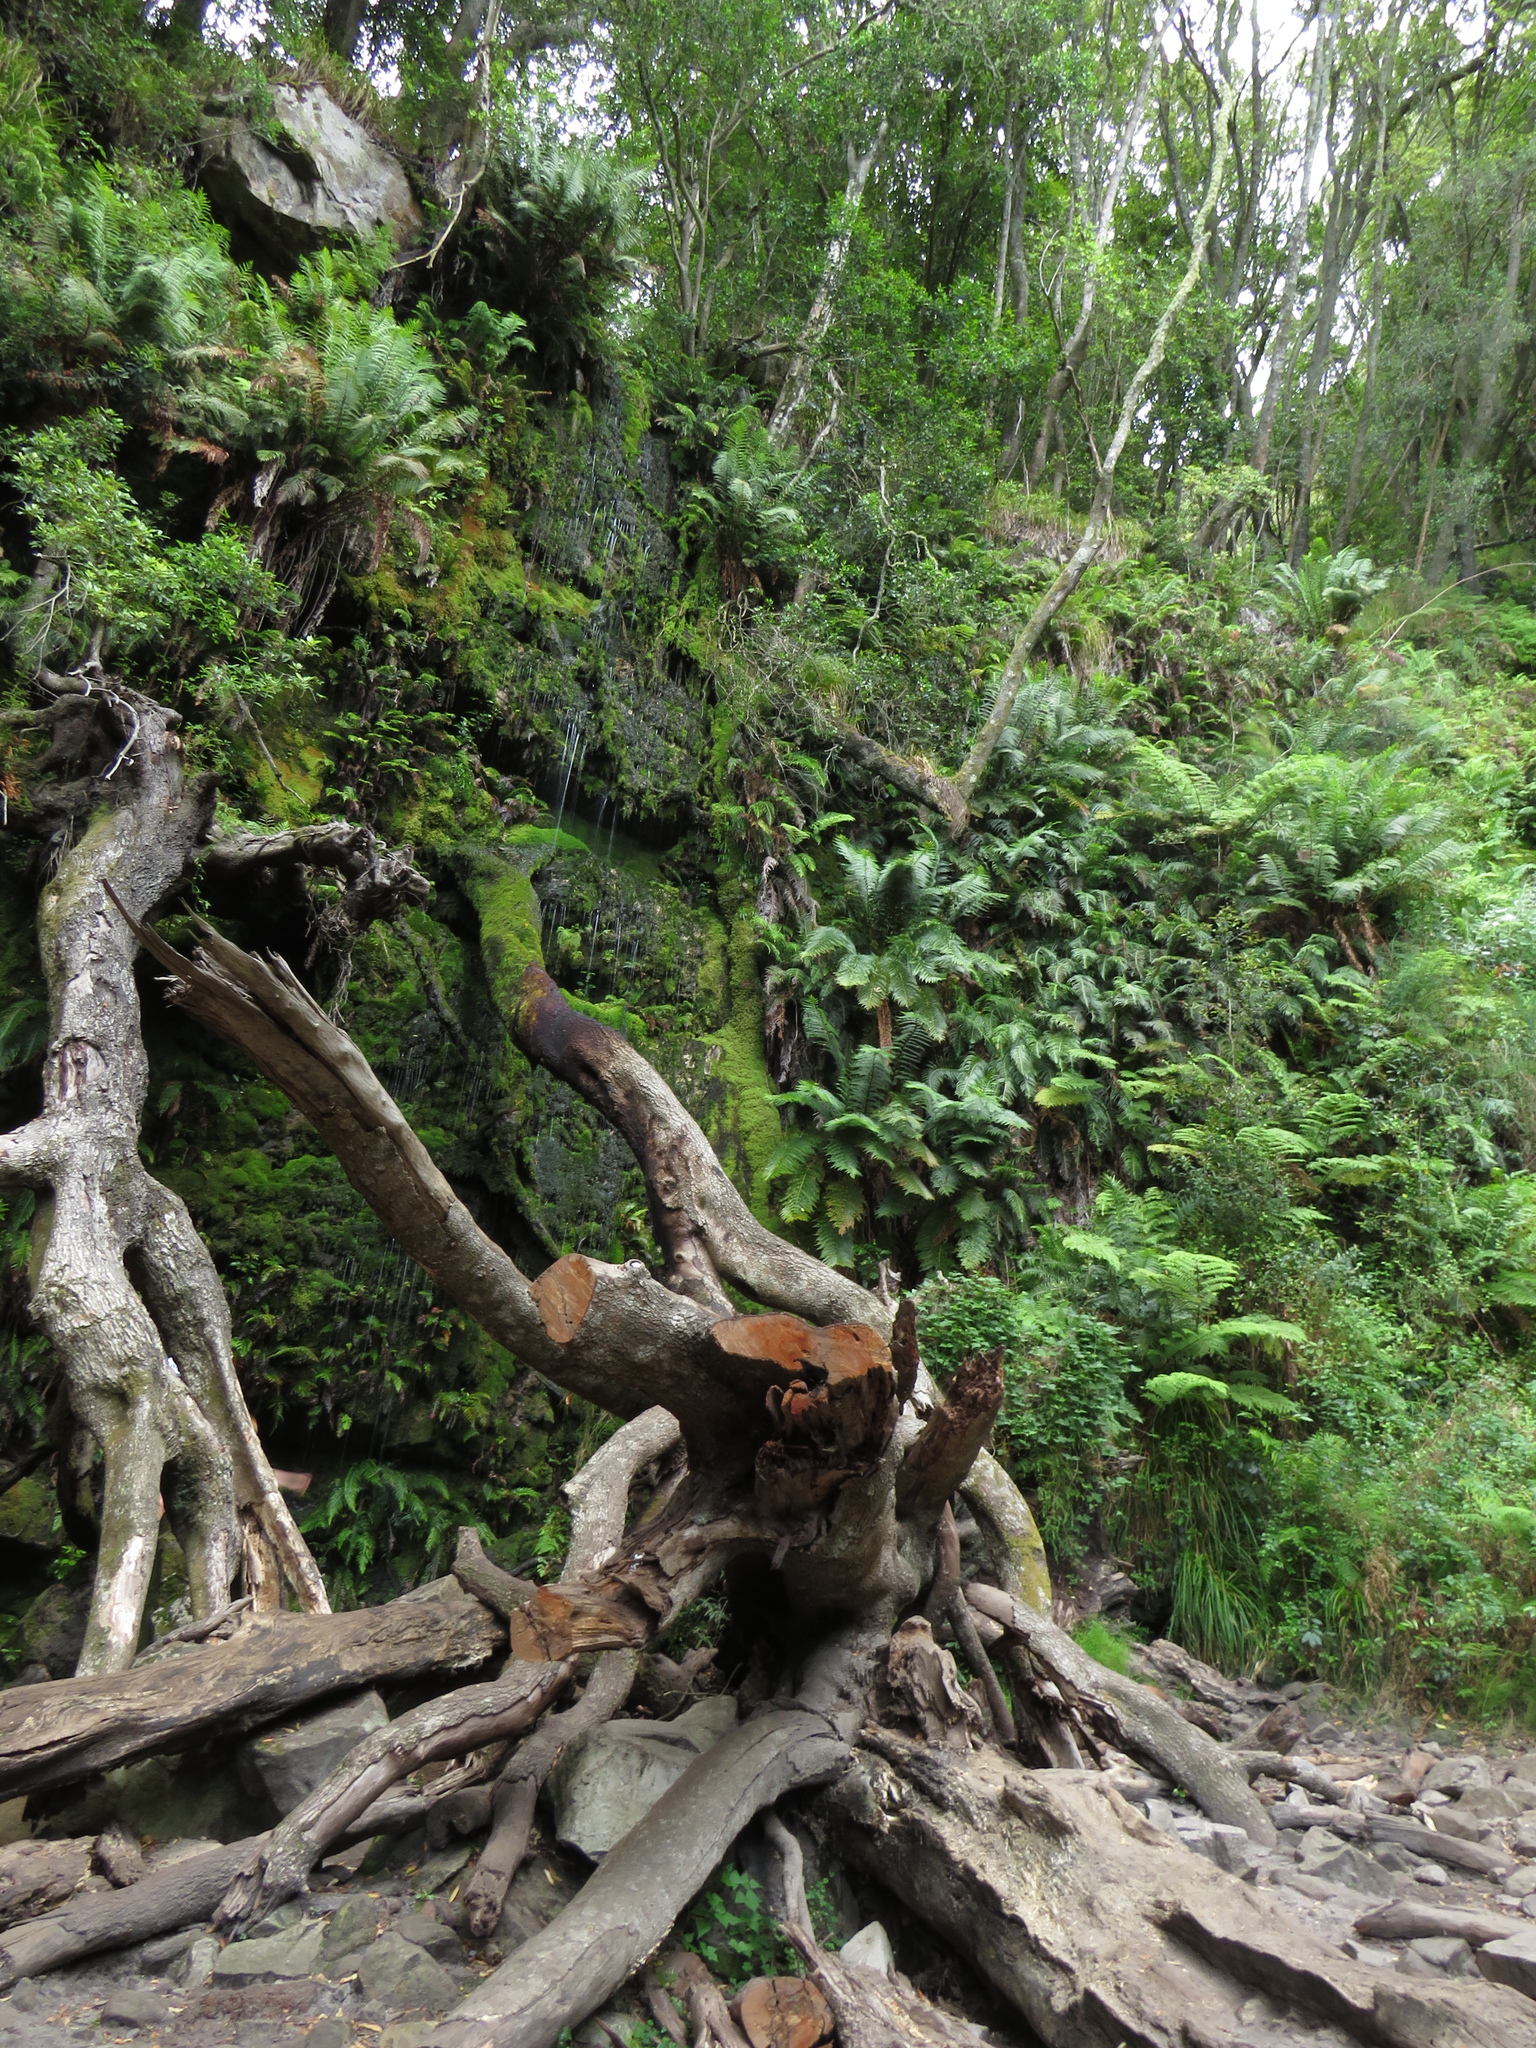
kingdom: Plantae
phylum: Tracheophyta
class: Polypodiopsida
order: Osmundales
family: Osmundaceae
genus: Todea
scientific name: Todea barbara
